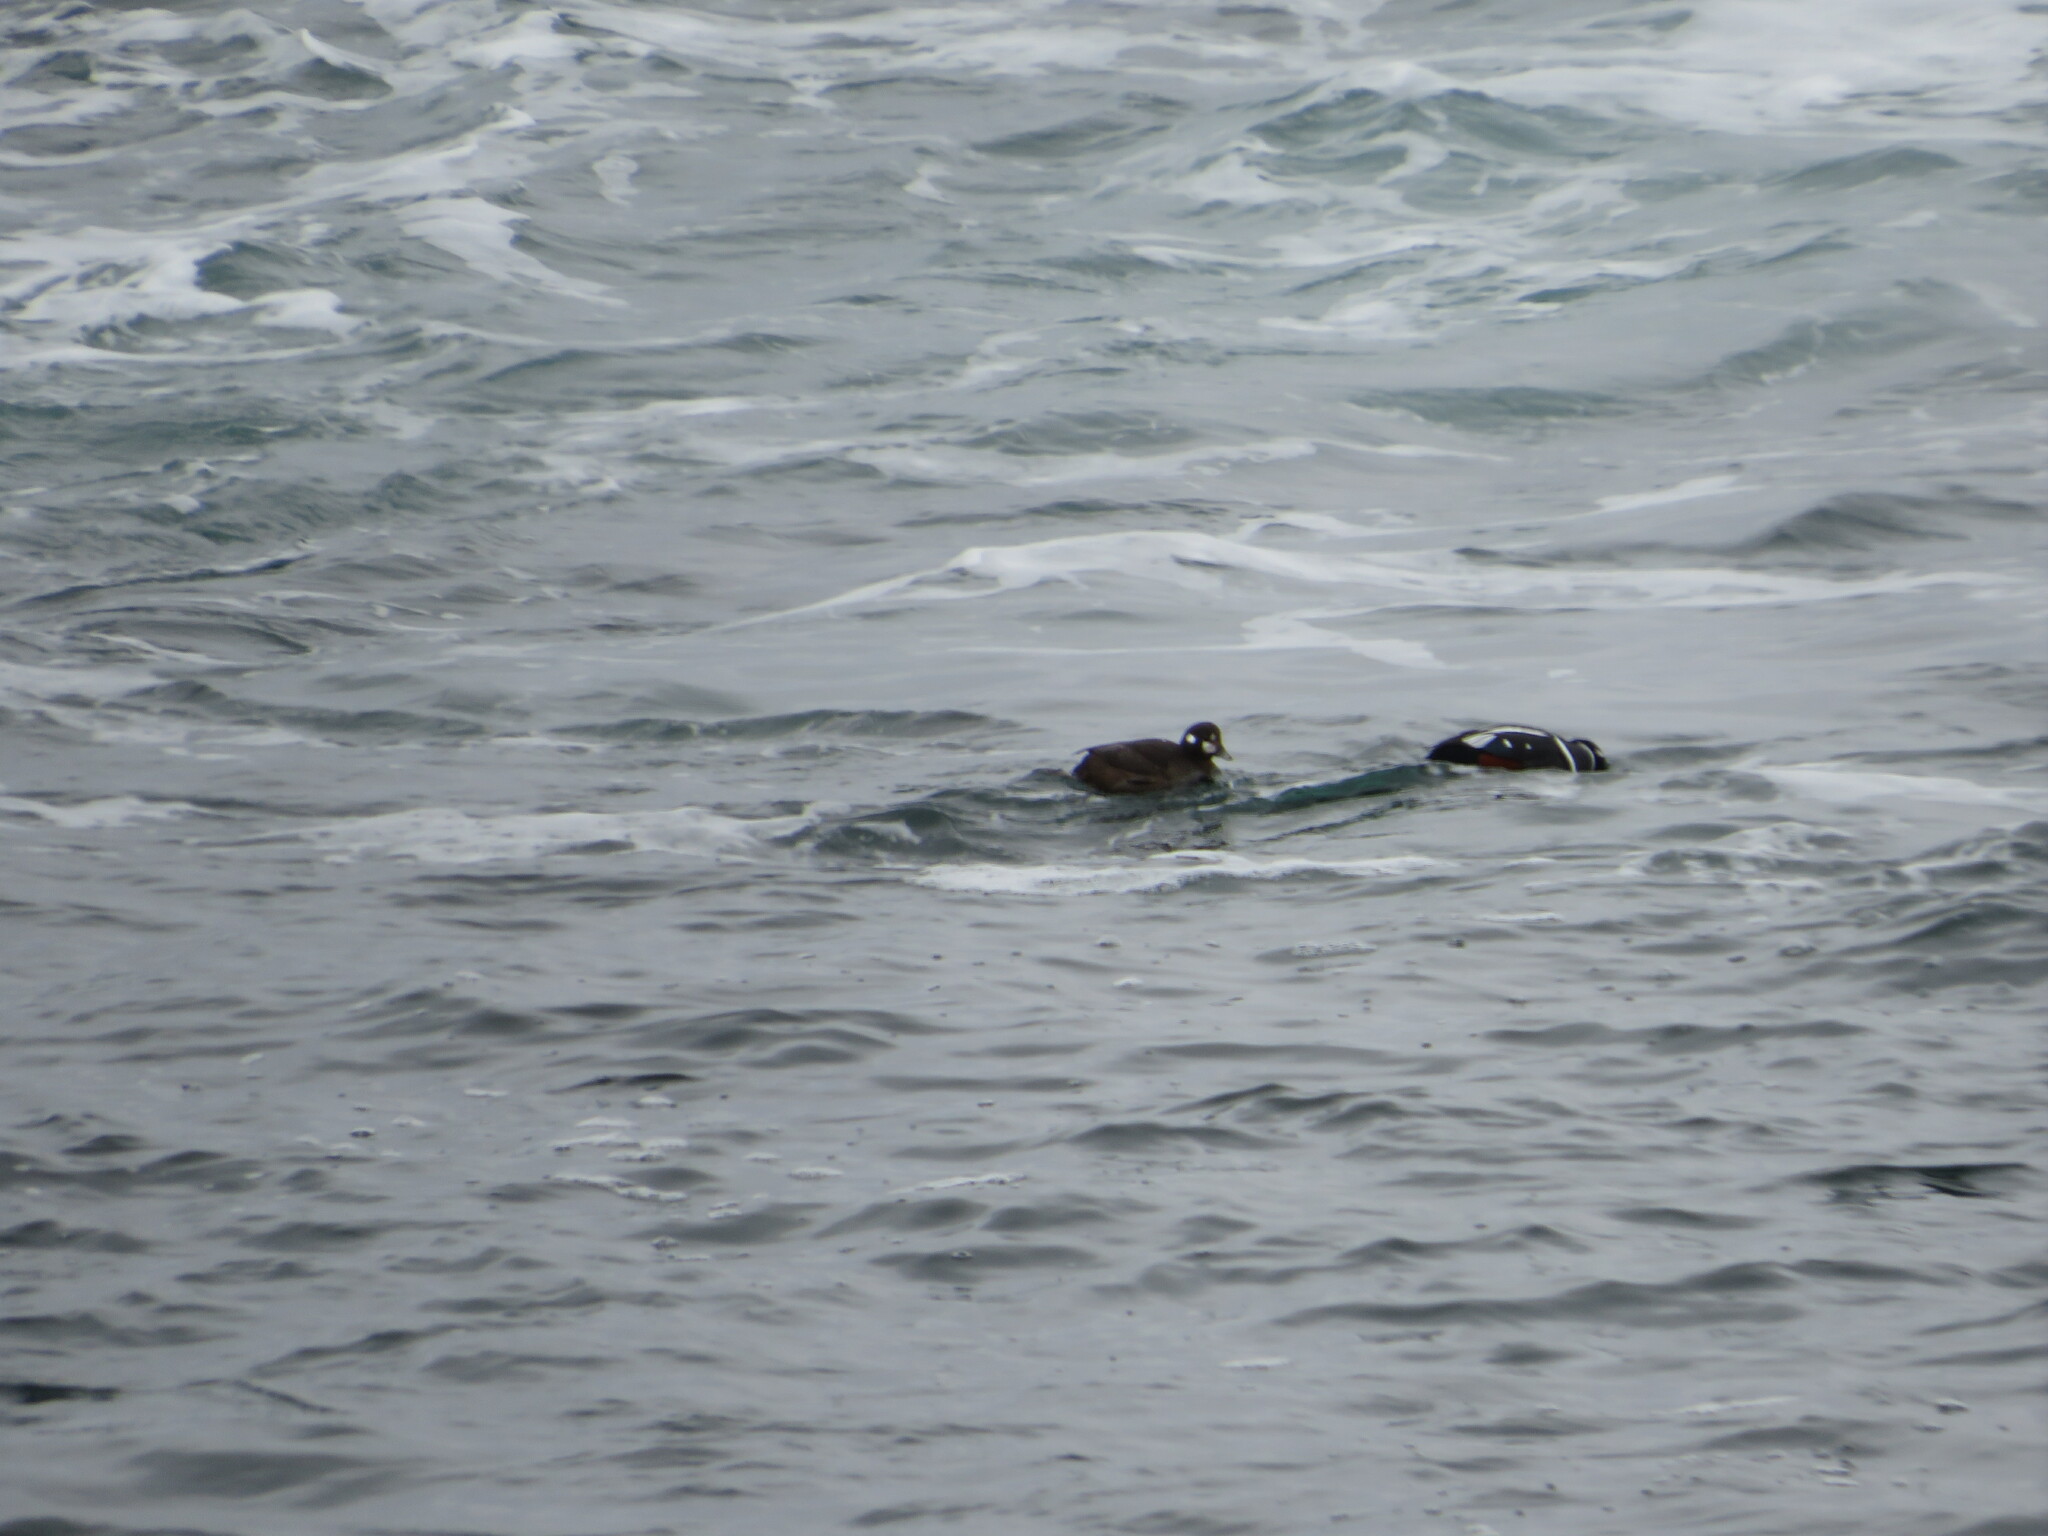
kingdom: Animalia
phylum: Chordata
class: Aves
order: Anseriformes
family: Anatidae
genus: Histrionicus
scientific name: Histrionicus histrionicus
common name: Harlequin duck
